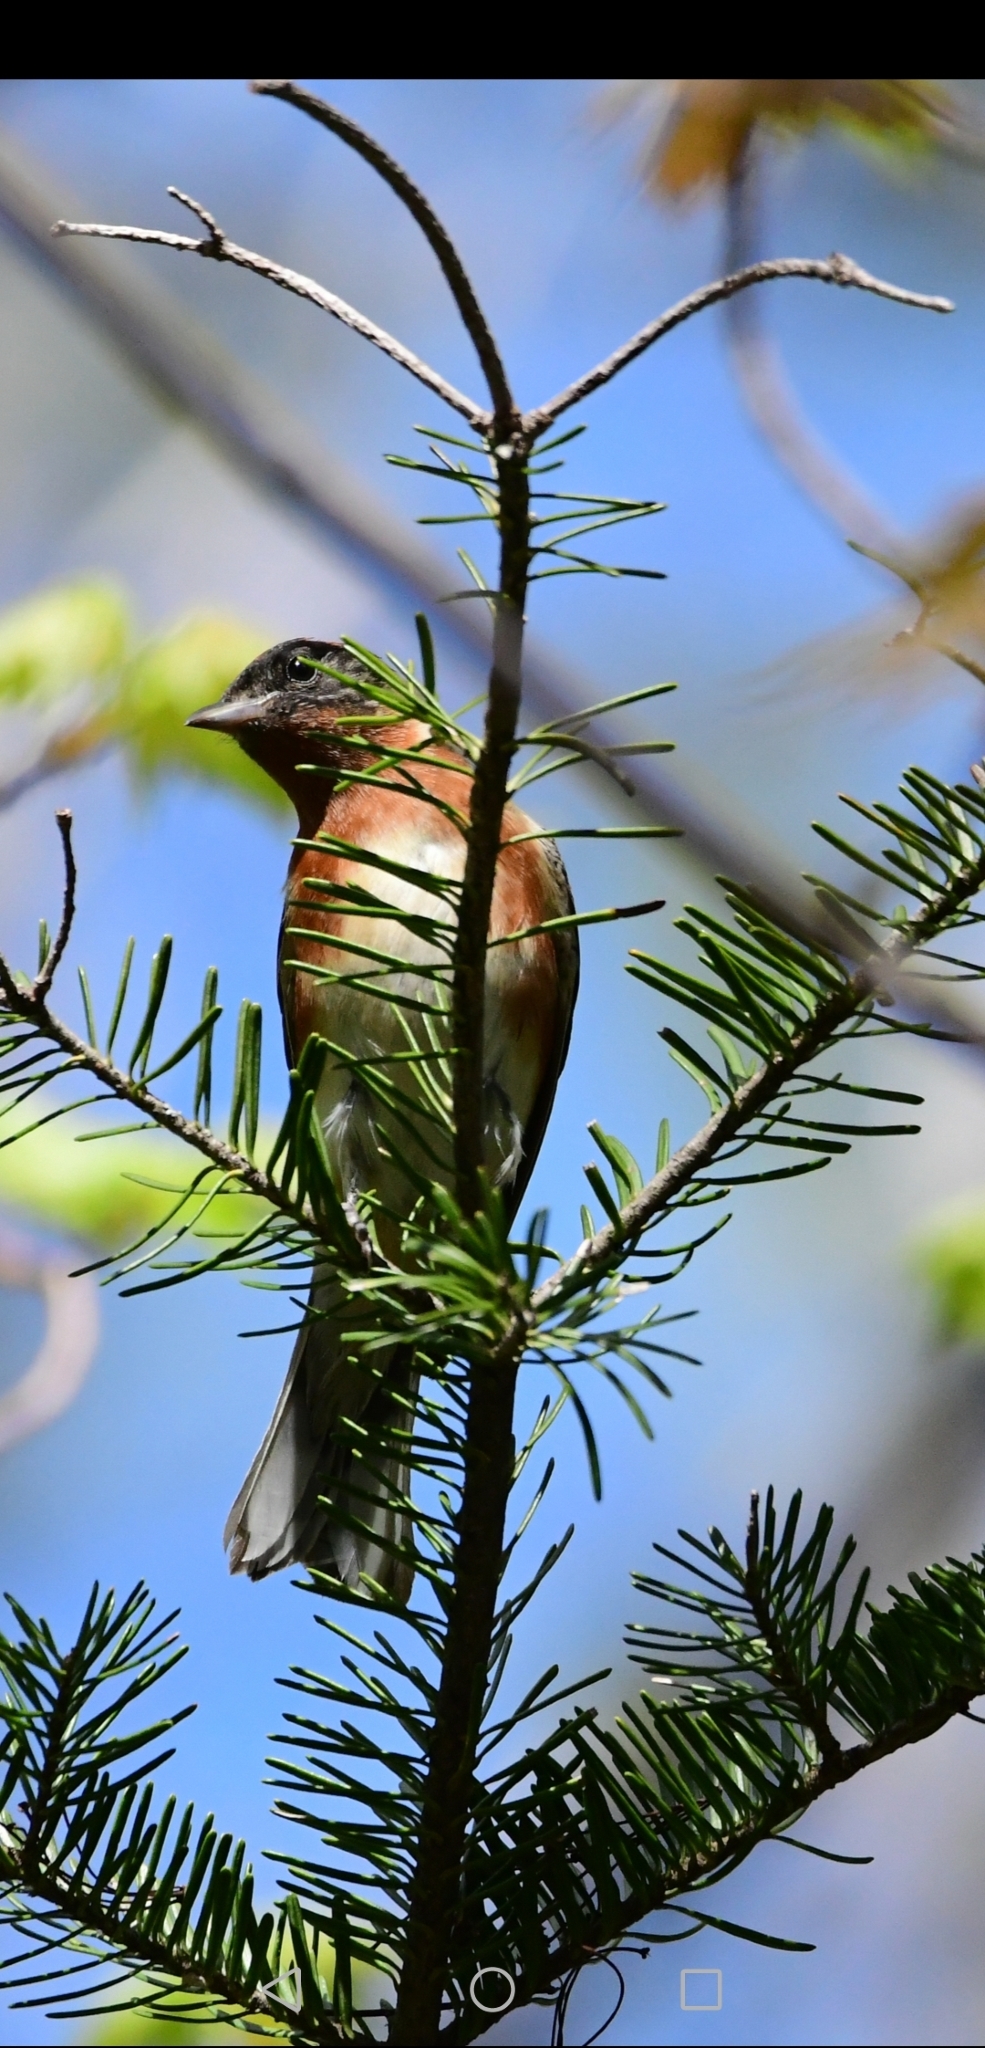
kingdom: Animalia
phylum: Chordata
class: Aves
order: Passeriformes
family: Parulidae
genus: Setophaga
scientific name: Setophaga castanea
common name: Bay-breasted warbler
